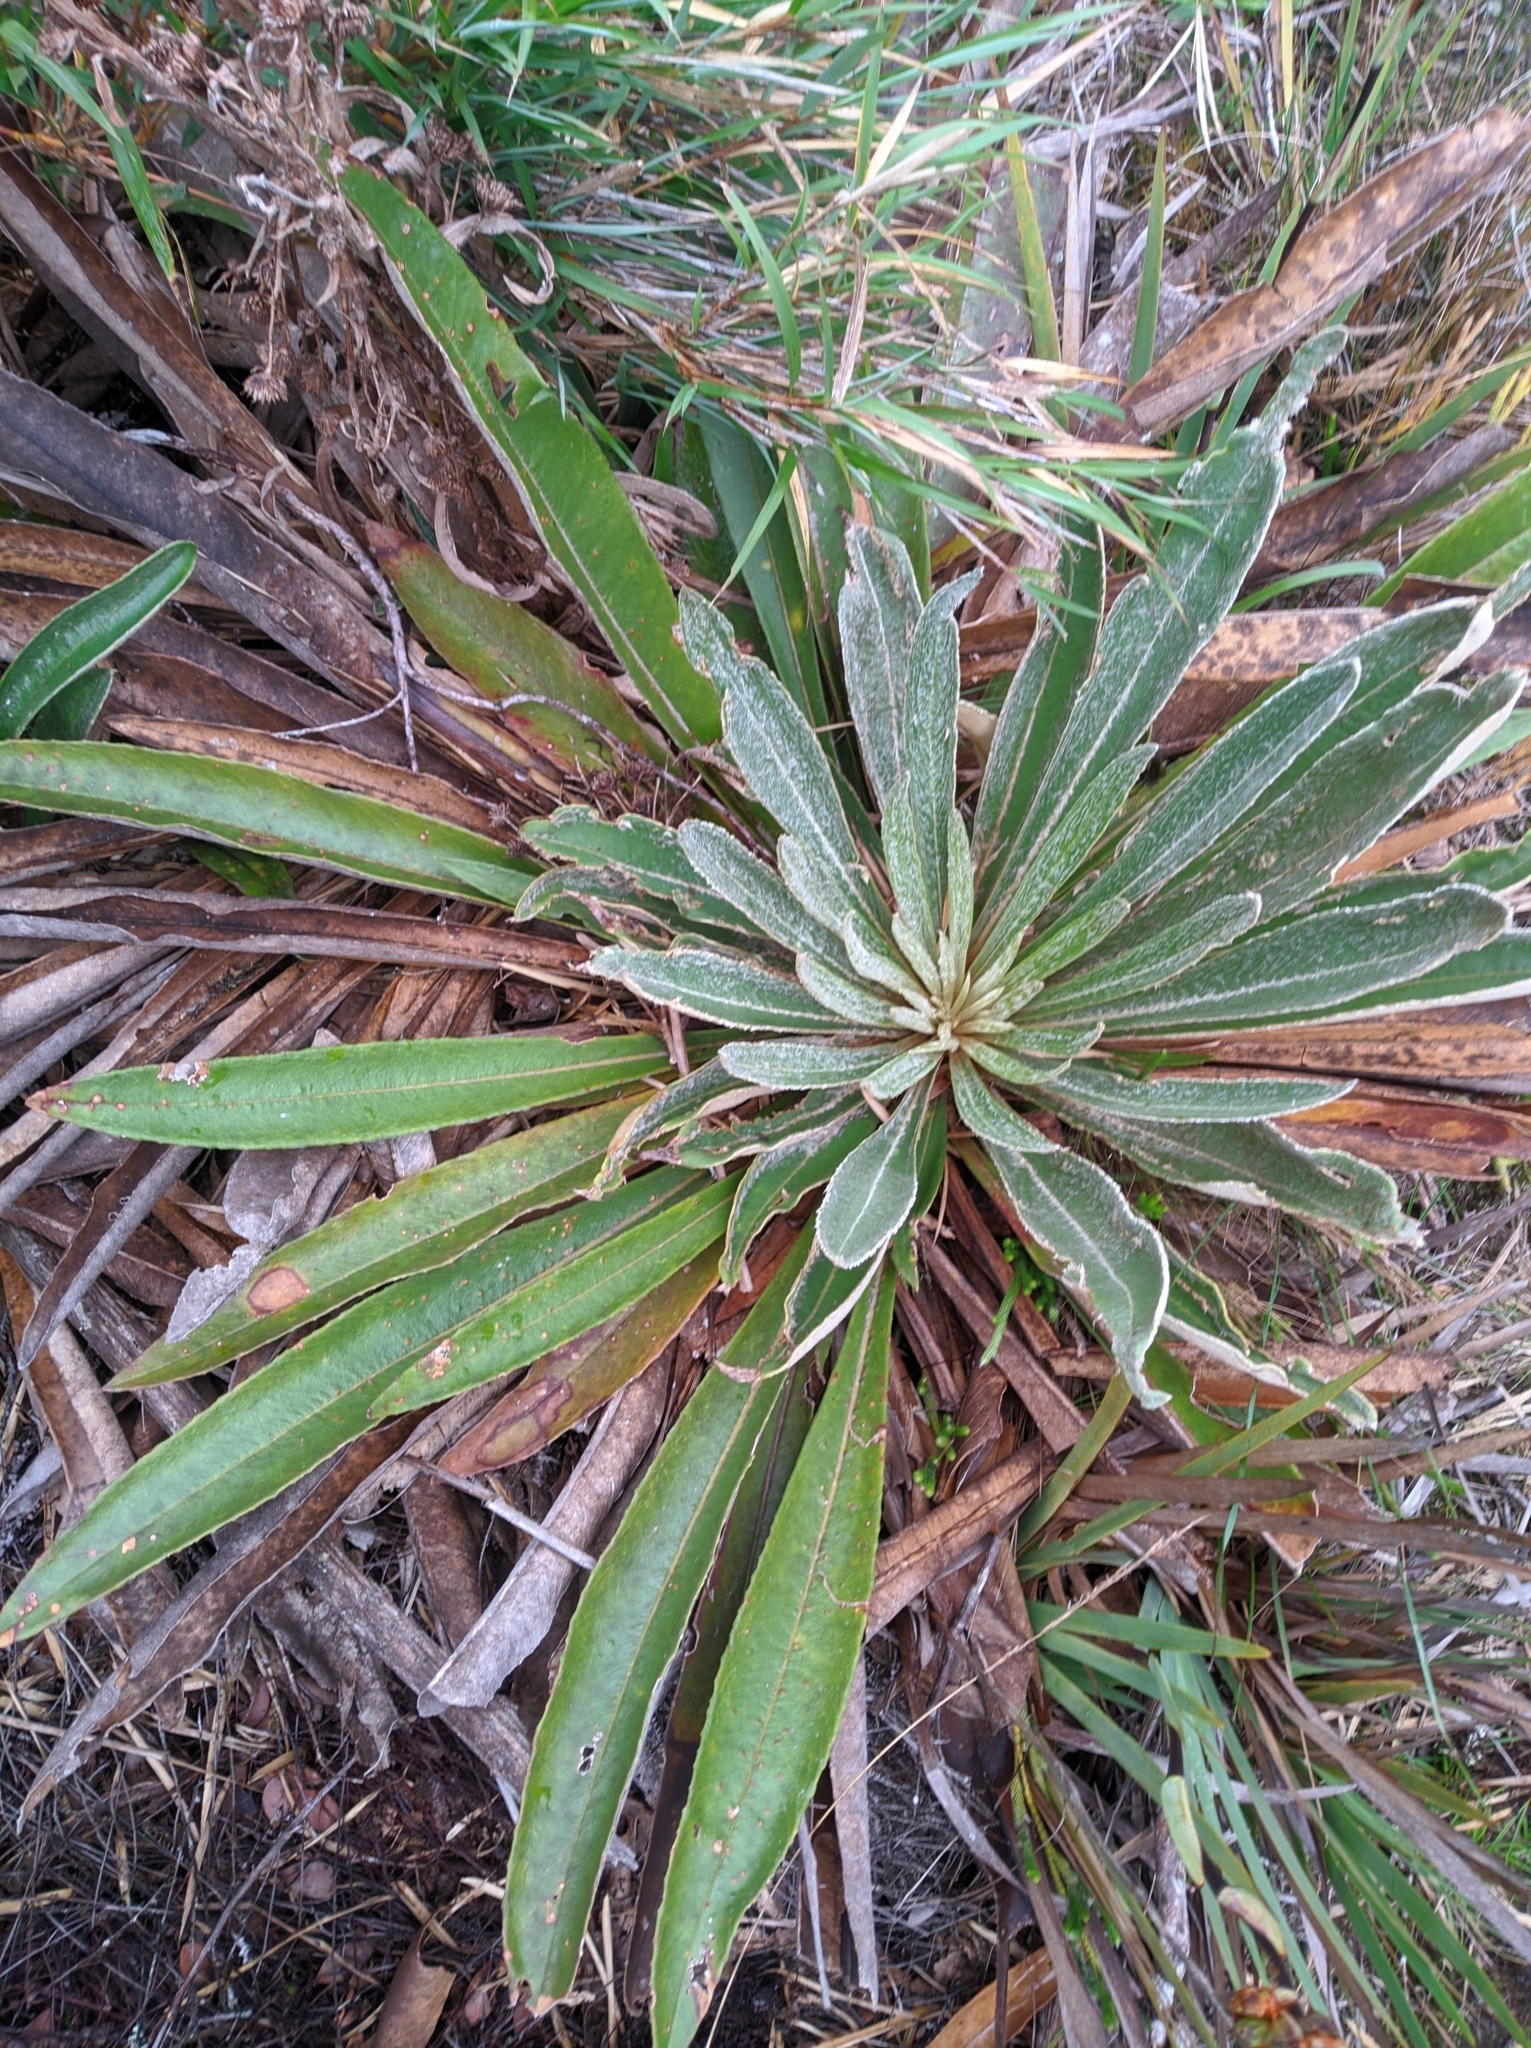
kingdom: Plantae
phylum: Tracheophyta
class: Magnoliopsida
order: Asterales
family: Asteraceae
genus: Espeletia
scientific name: Espeletia bracteosa
